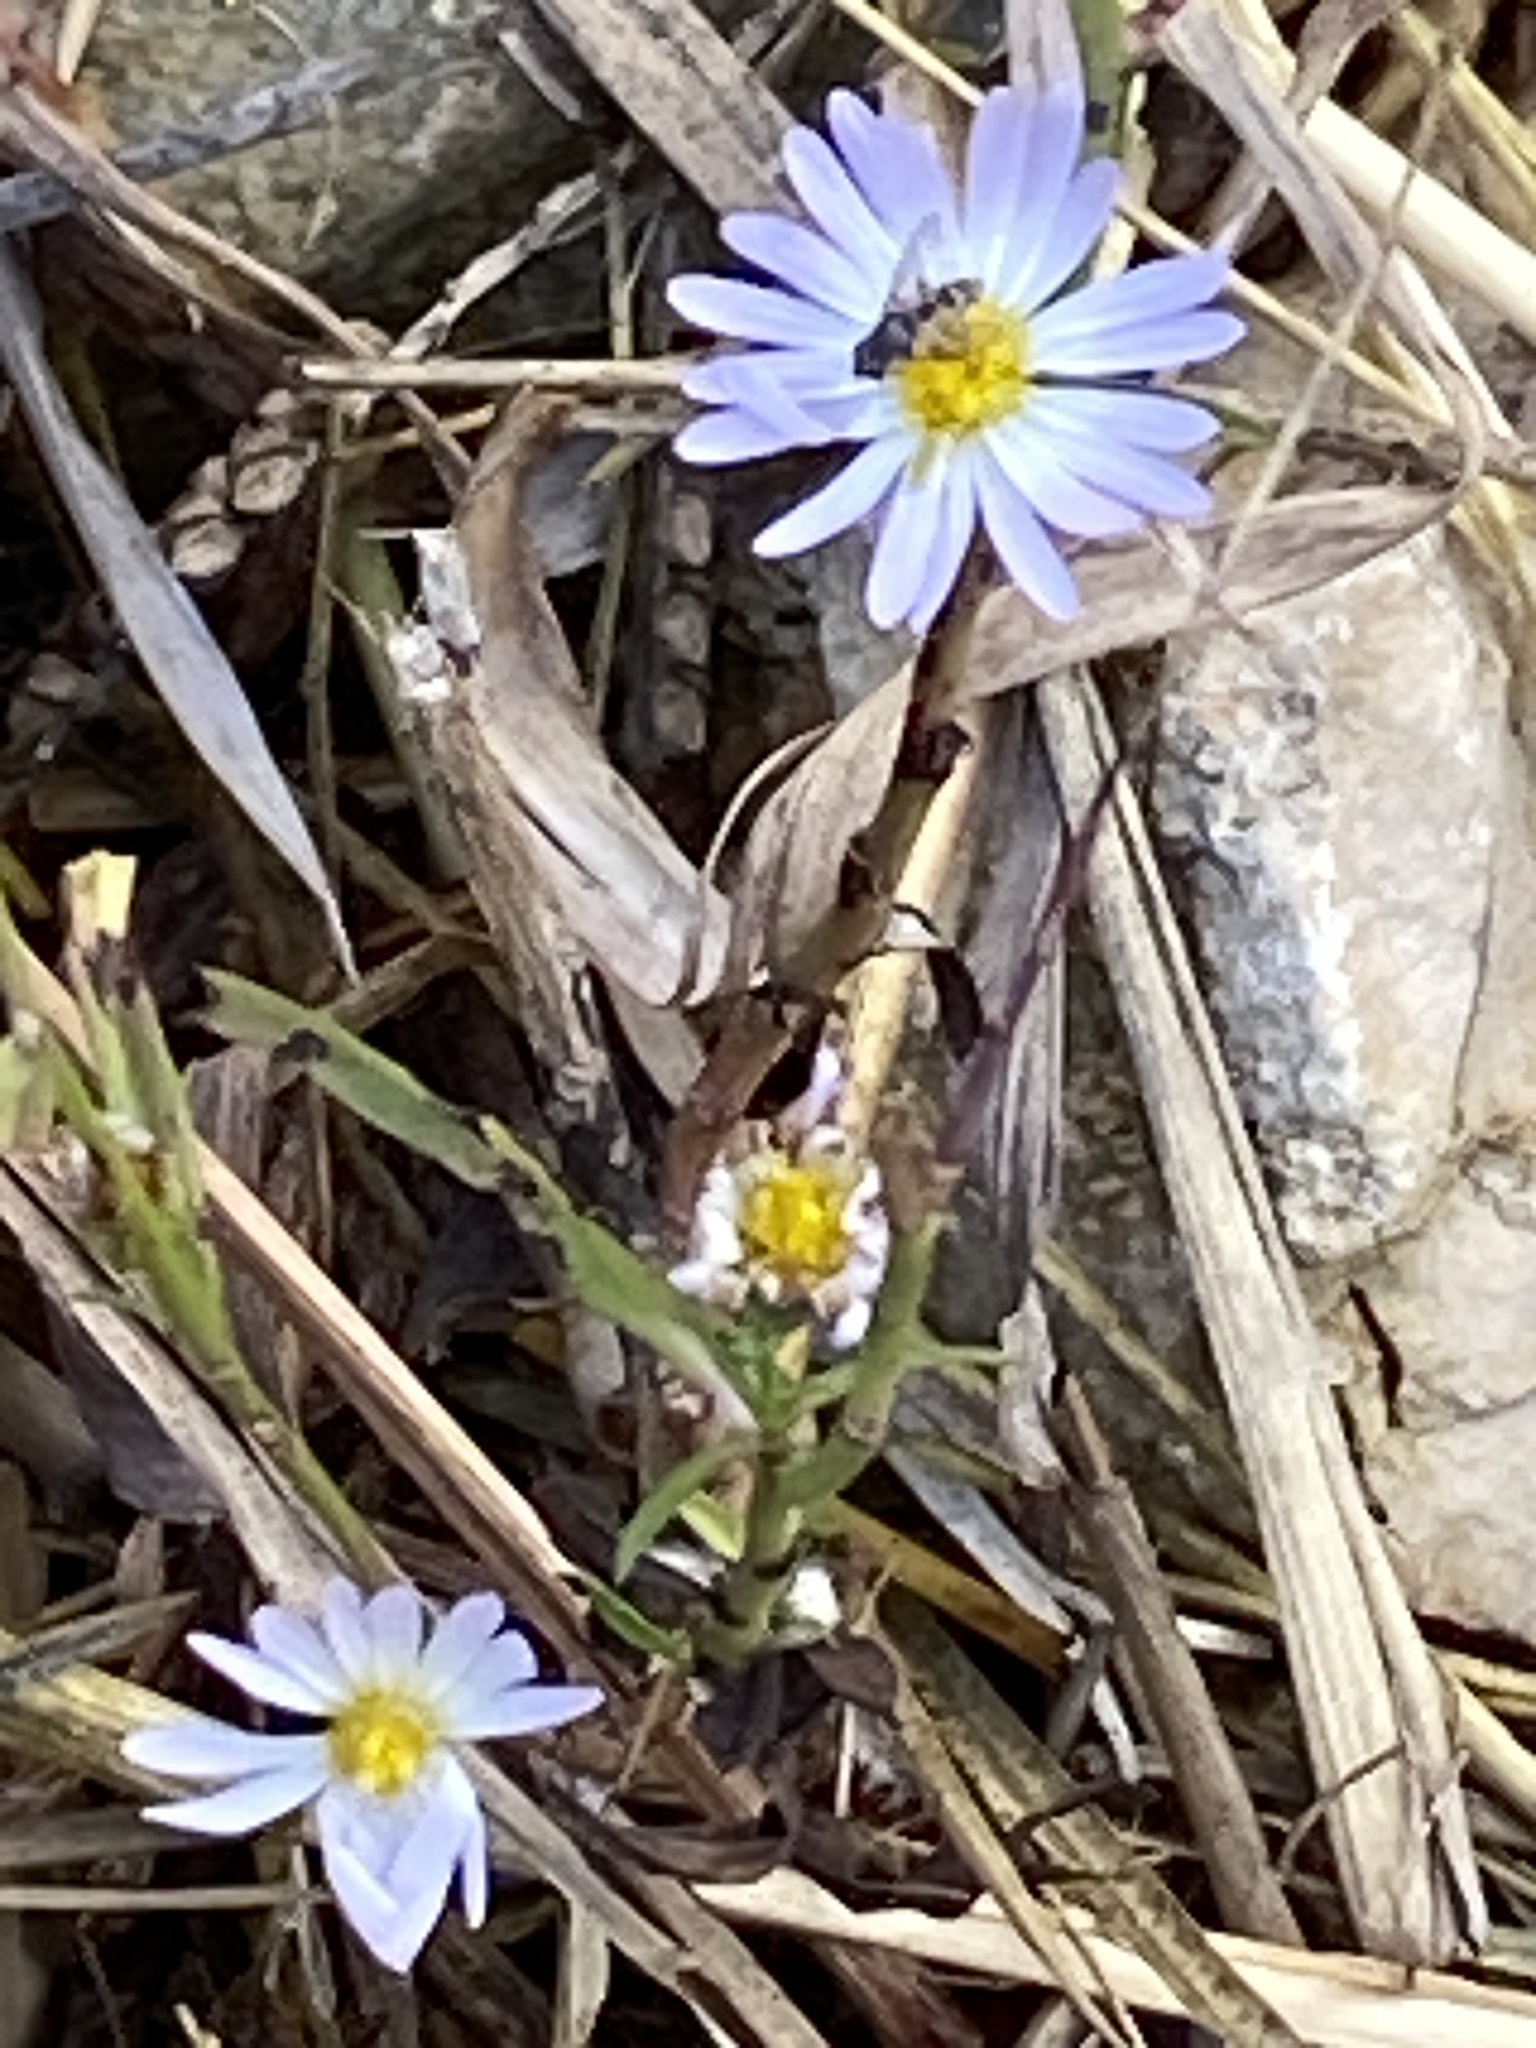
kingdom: Plantae
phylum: Tracheophyta
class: Magnoliopsida
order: Asterales
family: Asteraceae
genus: Symphyotrichum
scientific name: Symphyotrichum divaricatum
